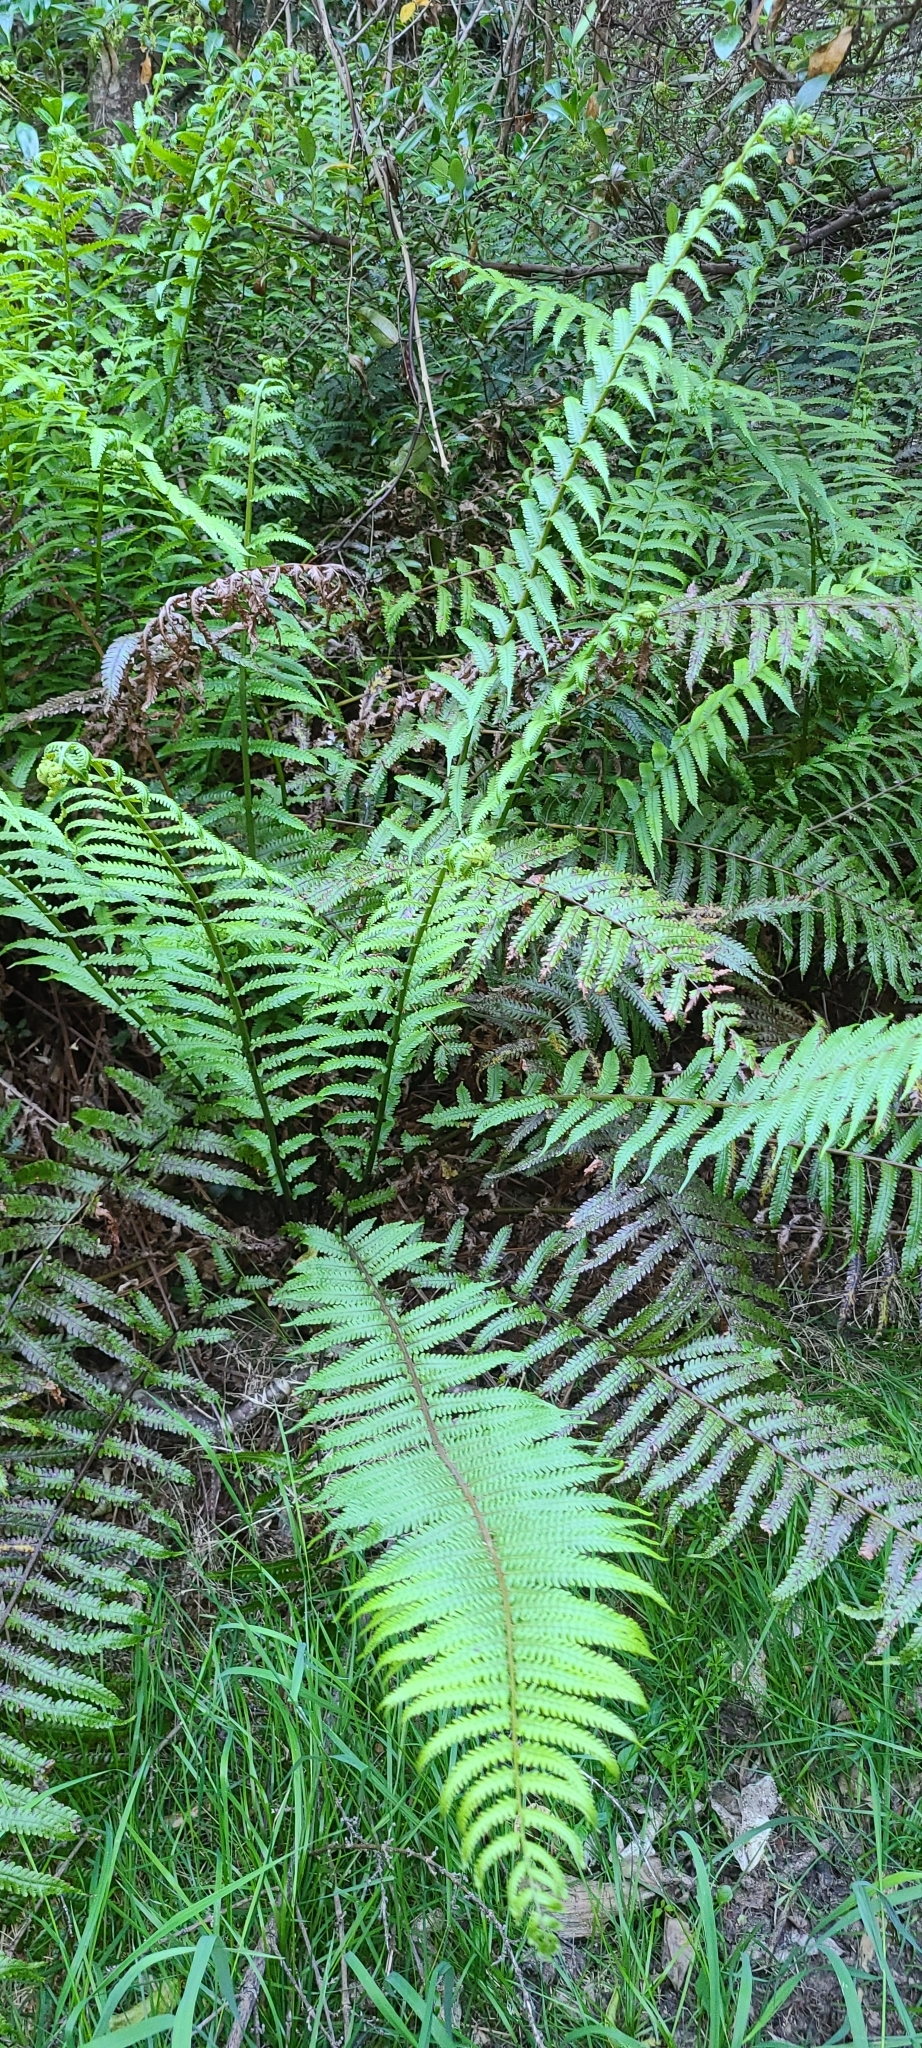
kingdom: Plantae
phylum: Tracheophyta
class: Polypodiopsida
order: Polypodiales
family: Thelypteridaceae
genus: Pakau
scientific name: Pakau pennigera
